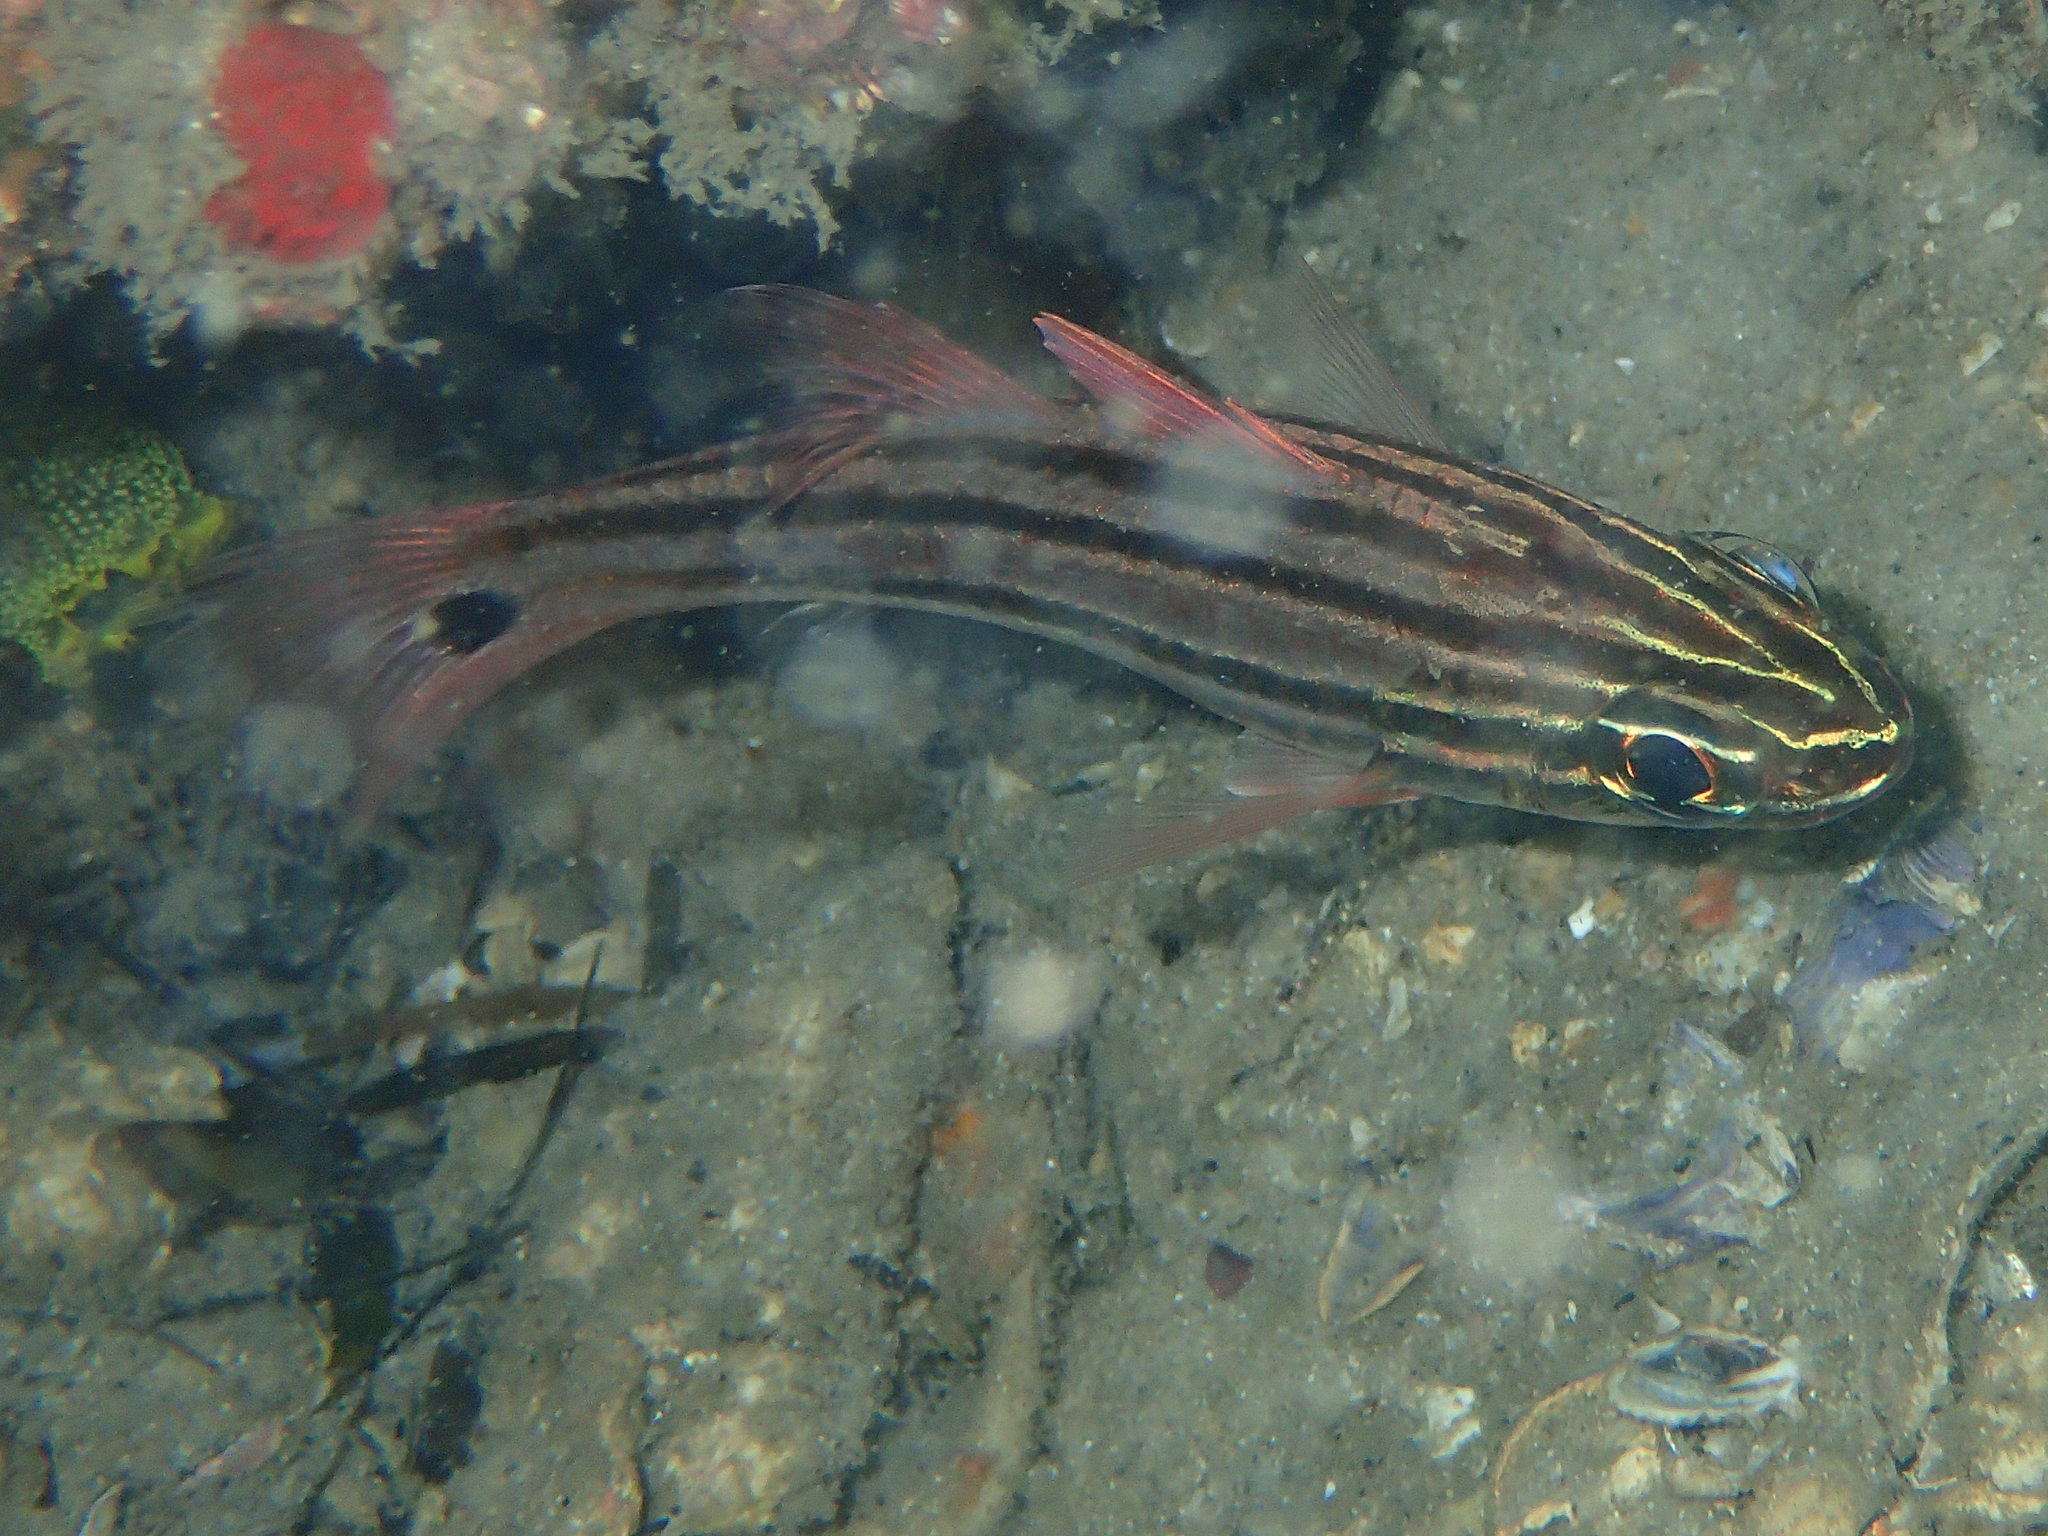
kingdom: Animalia
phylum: Chordata
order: Perciformes
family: Apogonidae
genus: Ostorhinchus
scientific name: Ostorhinchus limenus
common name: Four-banded soldierfish
